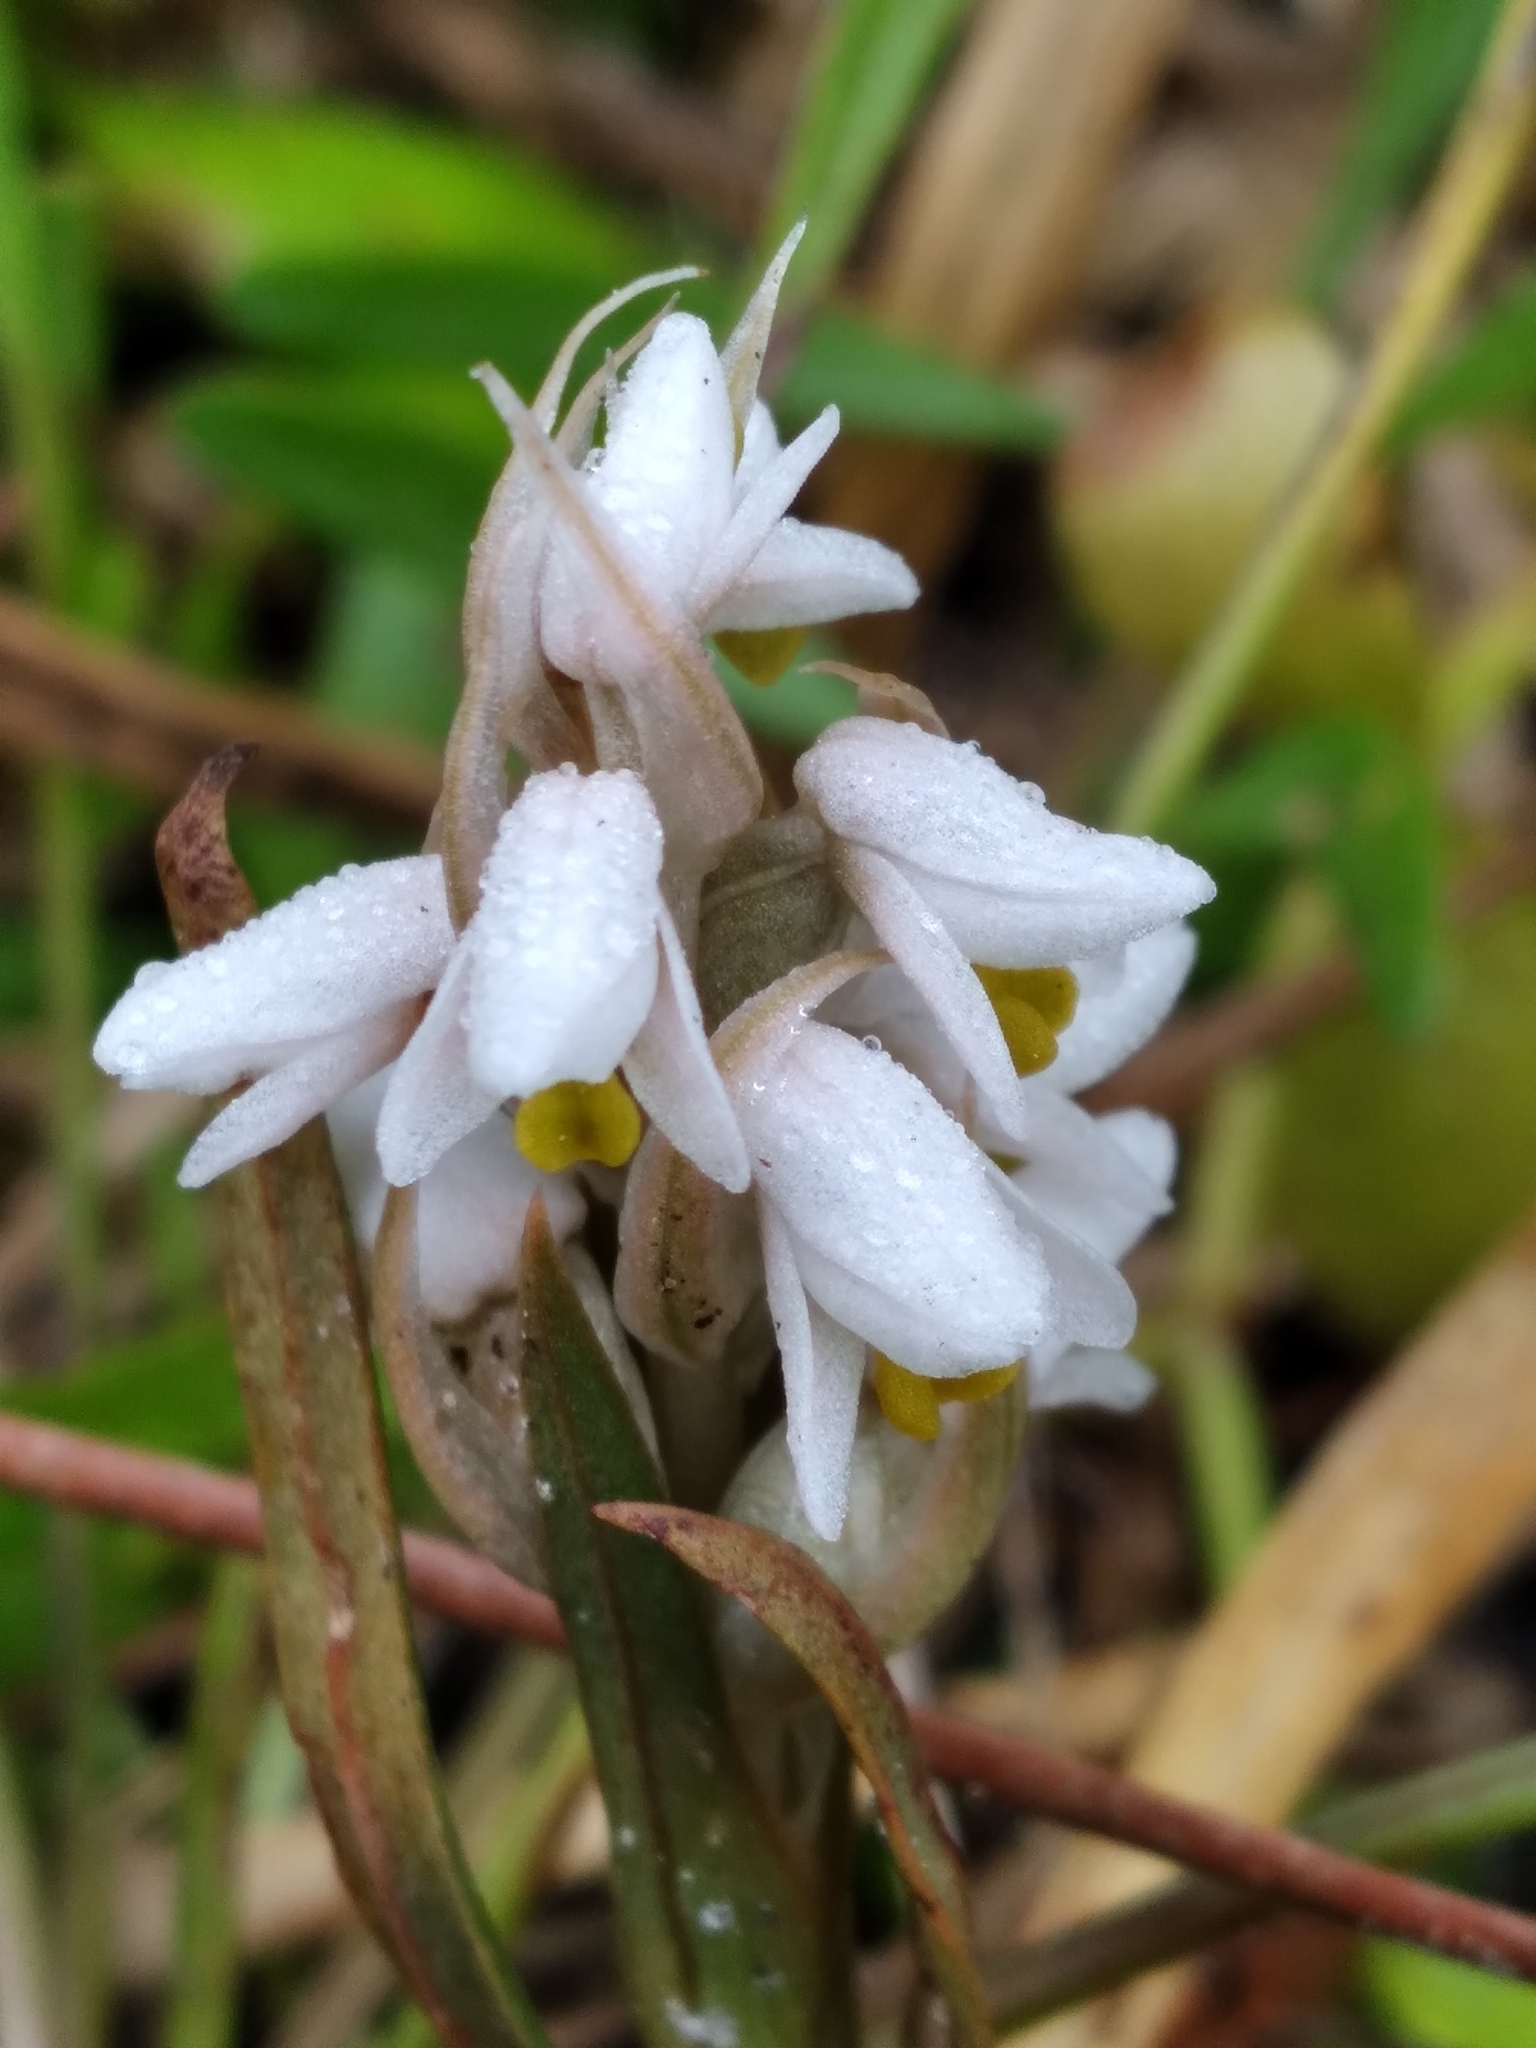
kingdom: Plantae
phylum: Tracheophyta
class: Liliopsida
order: Asparagales
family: Orchidaceae
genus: Zeuxine
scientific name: Zeuxine strateumatica
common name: Soldier's orchid
